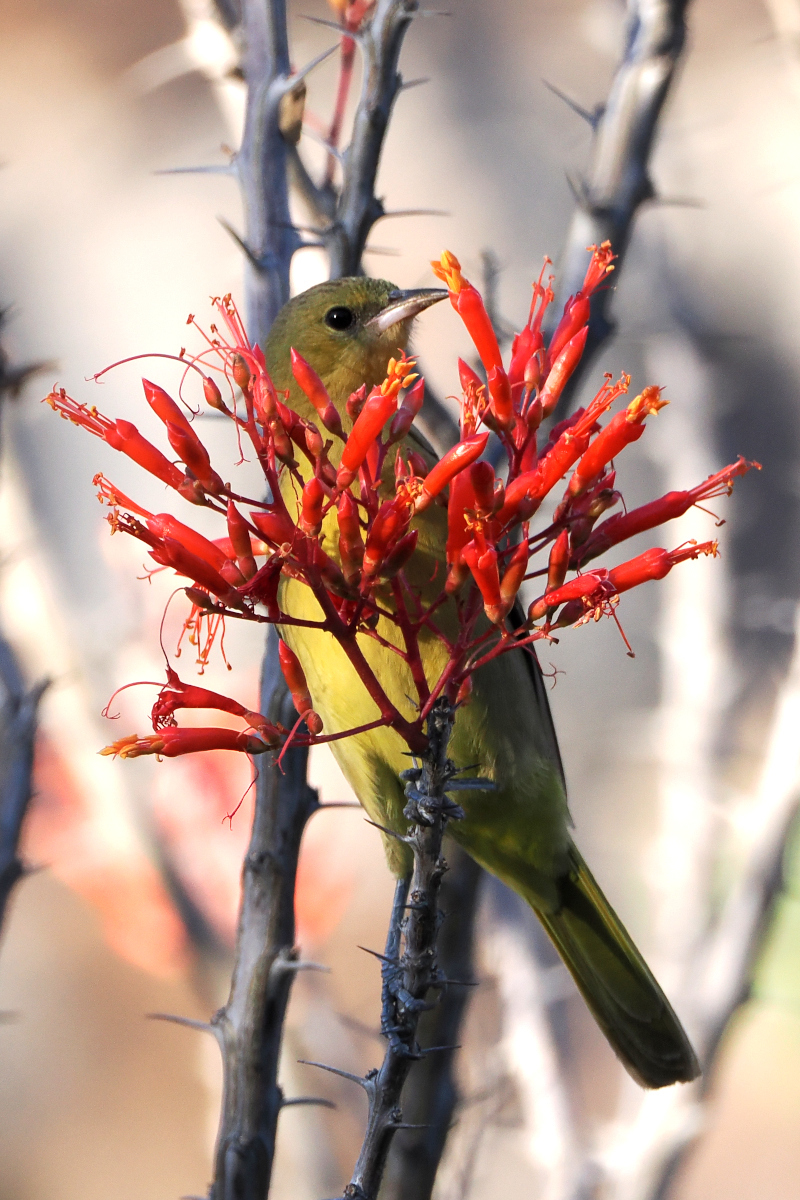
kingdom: Animalia
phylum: Chordata
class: Aves
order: Passeriformes
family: Icteridae
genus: Icterus
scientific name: Icterus cucullatus
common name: Hooded oriole
